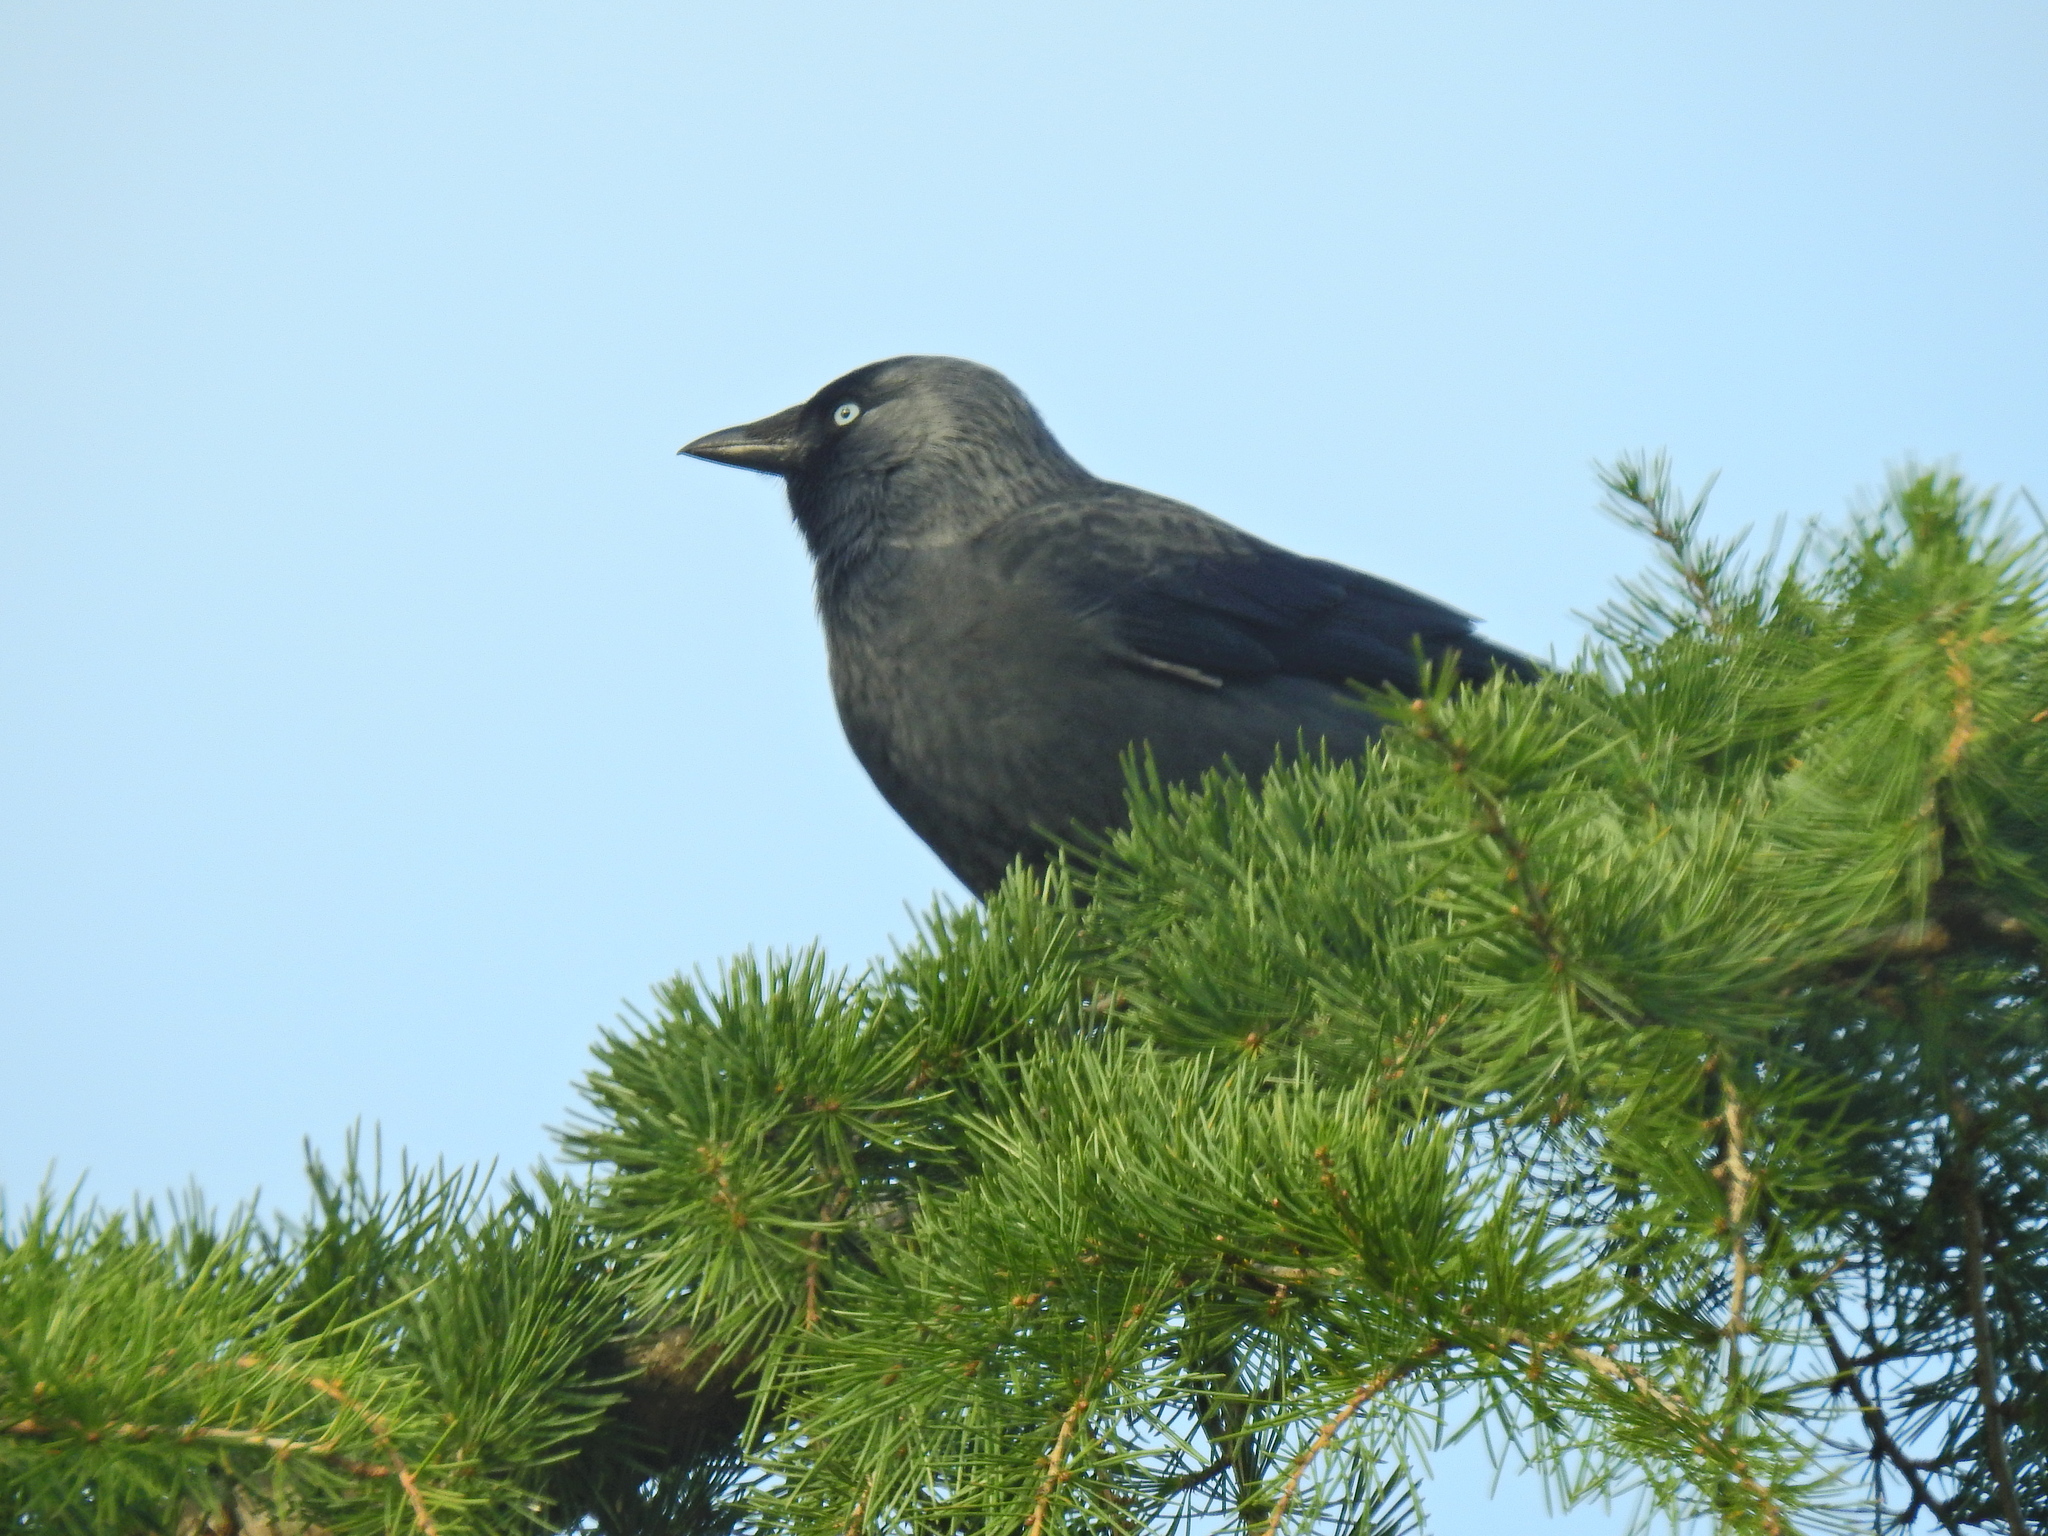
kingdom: Animalia
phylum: Chordata
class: Aves
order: Passeriformes
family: Corvidae
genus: Coloeus
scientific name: Coloeus monedula
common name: Western jackdaw
